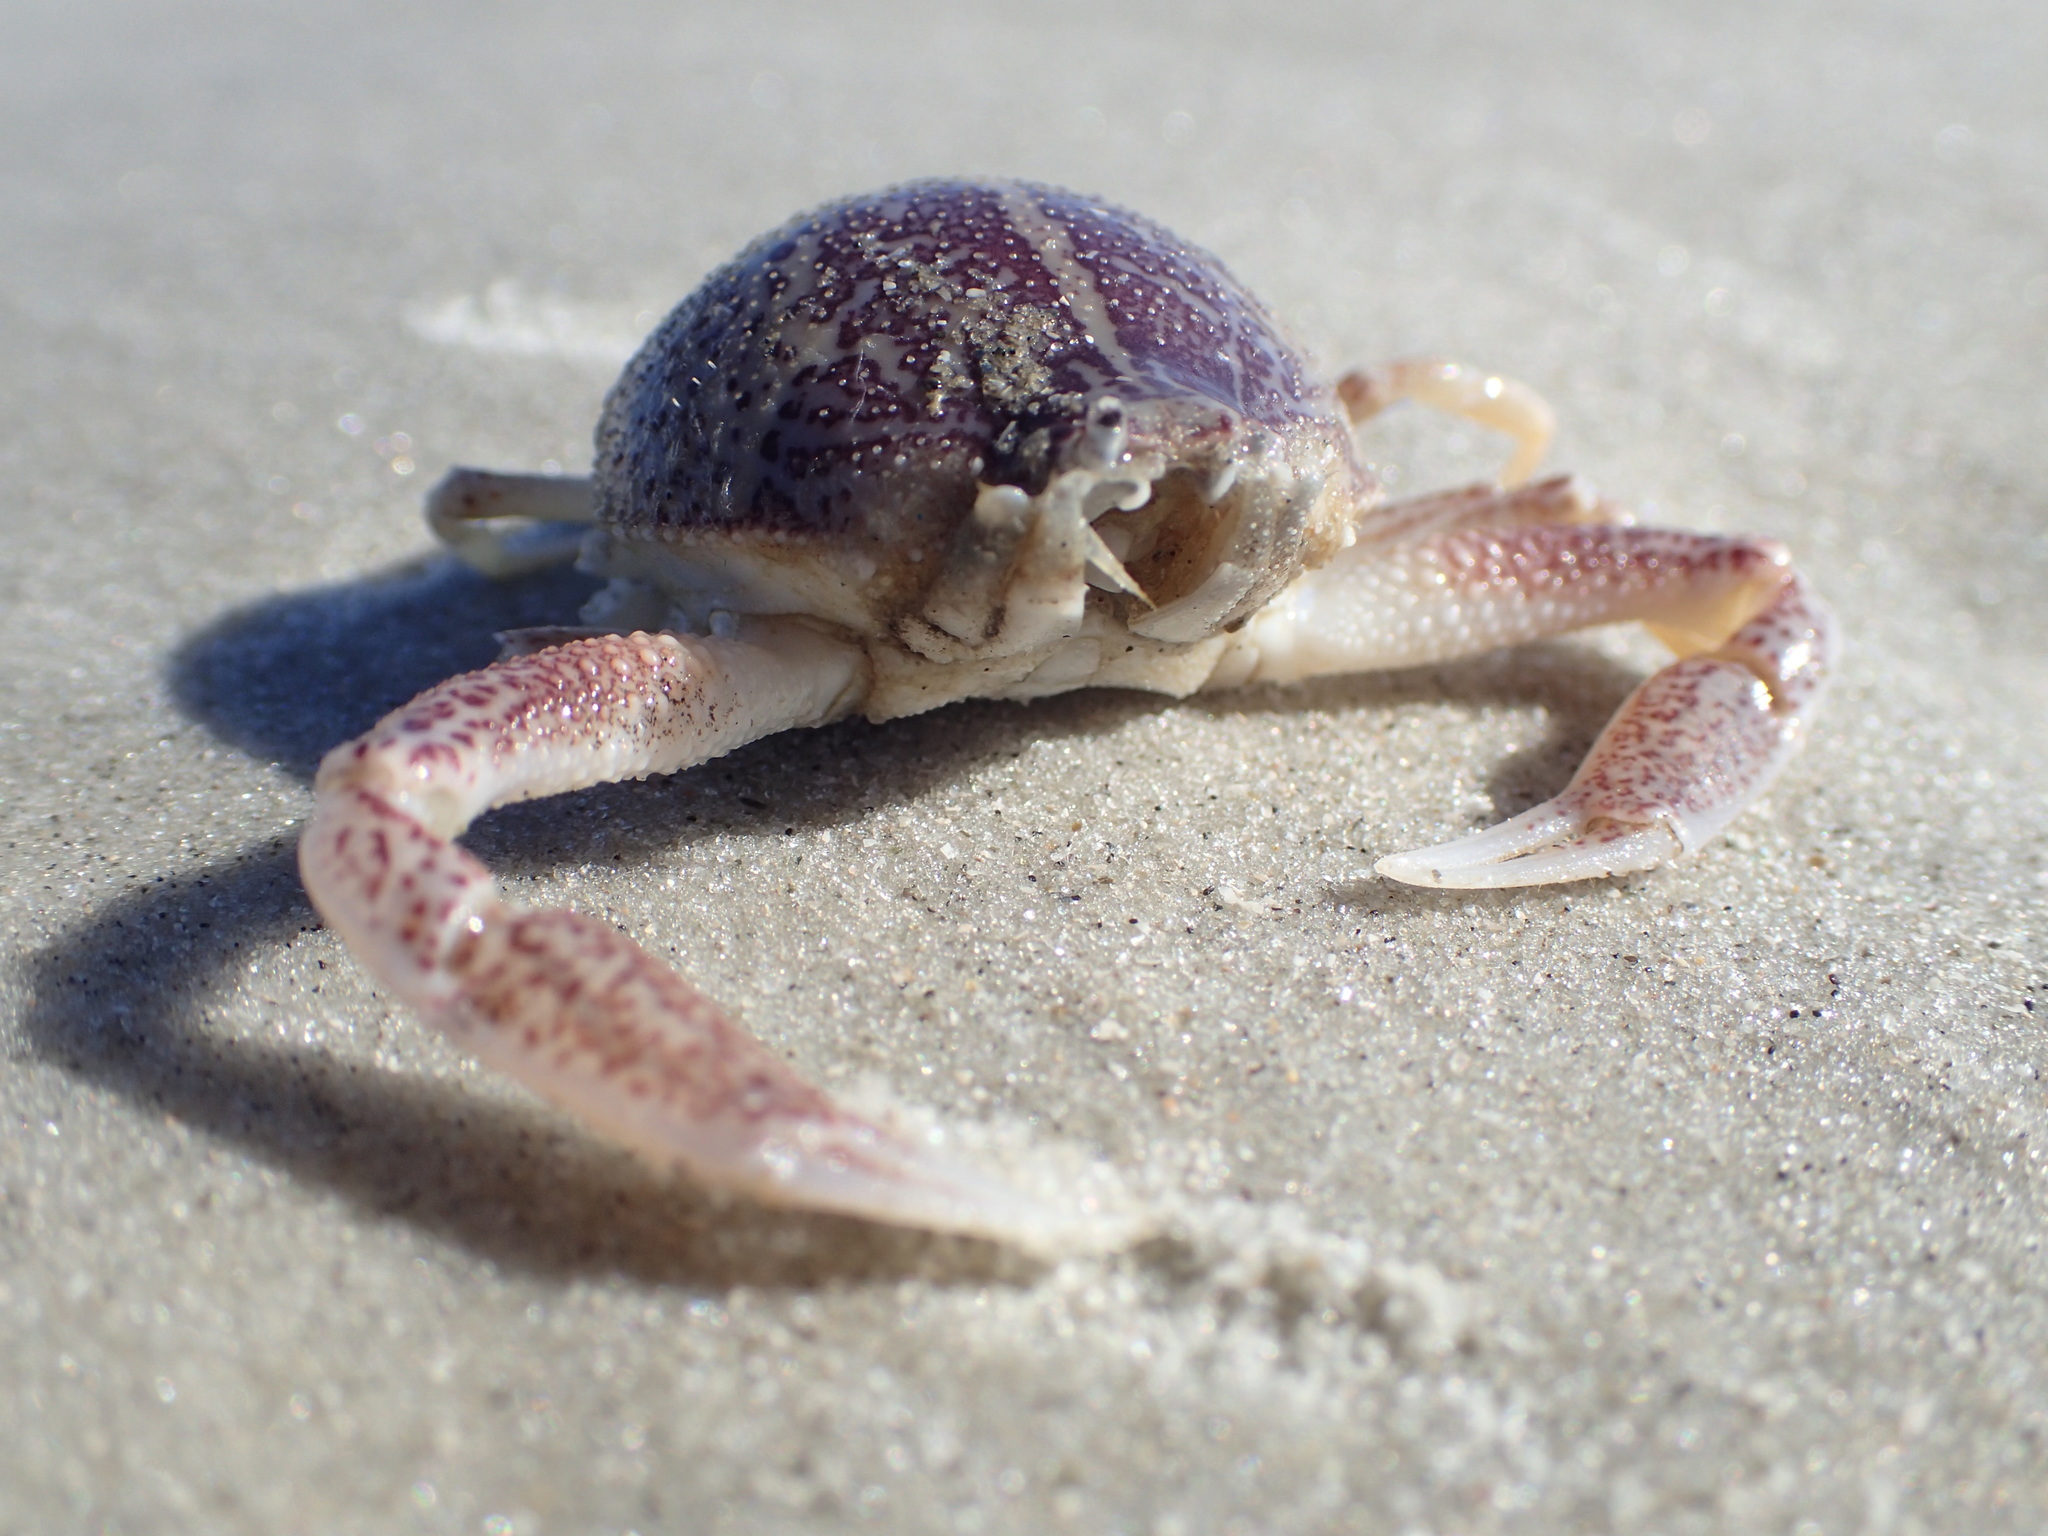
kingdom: Animalia
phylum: Arthropoda
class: Malacostraca
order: Decapoda
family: Leucosiidae
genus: Persephona
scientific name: Persephona aquilonaris
